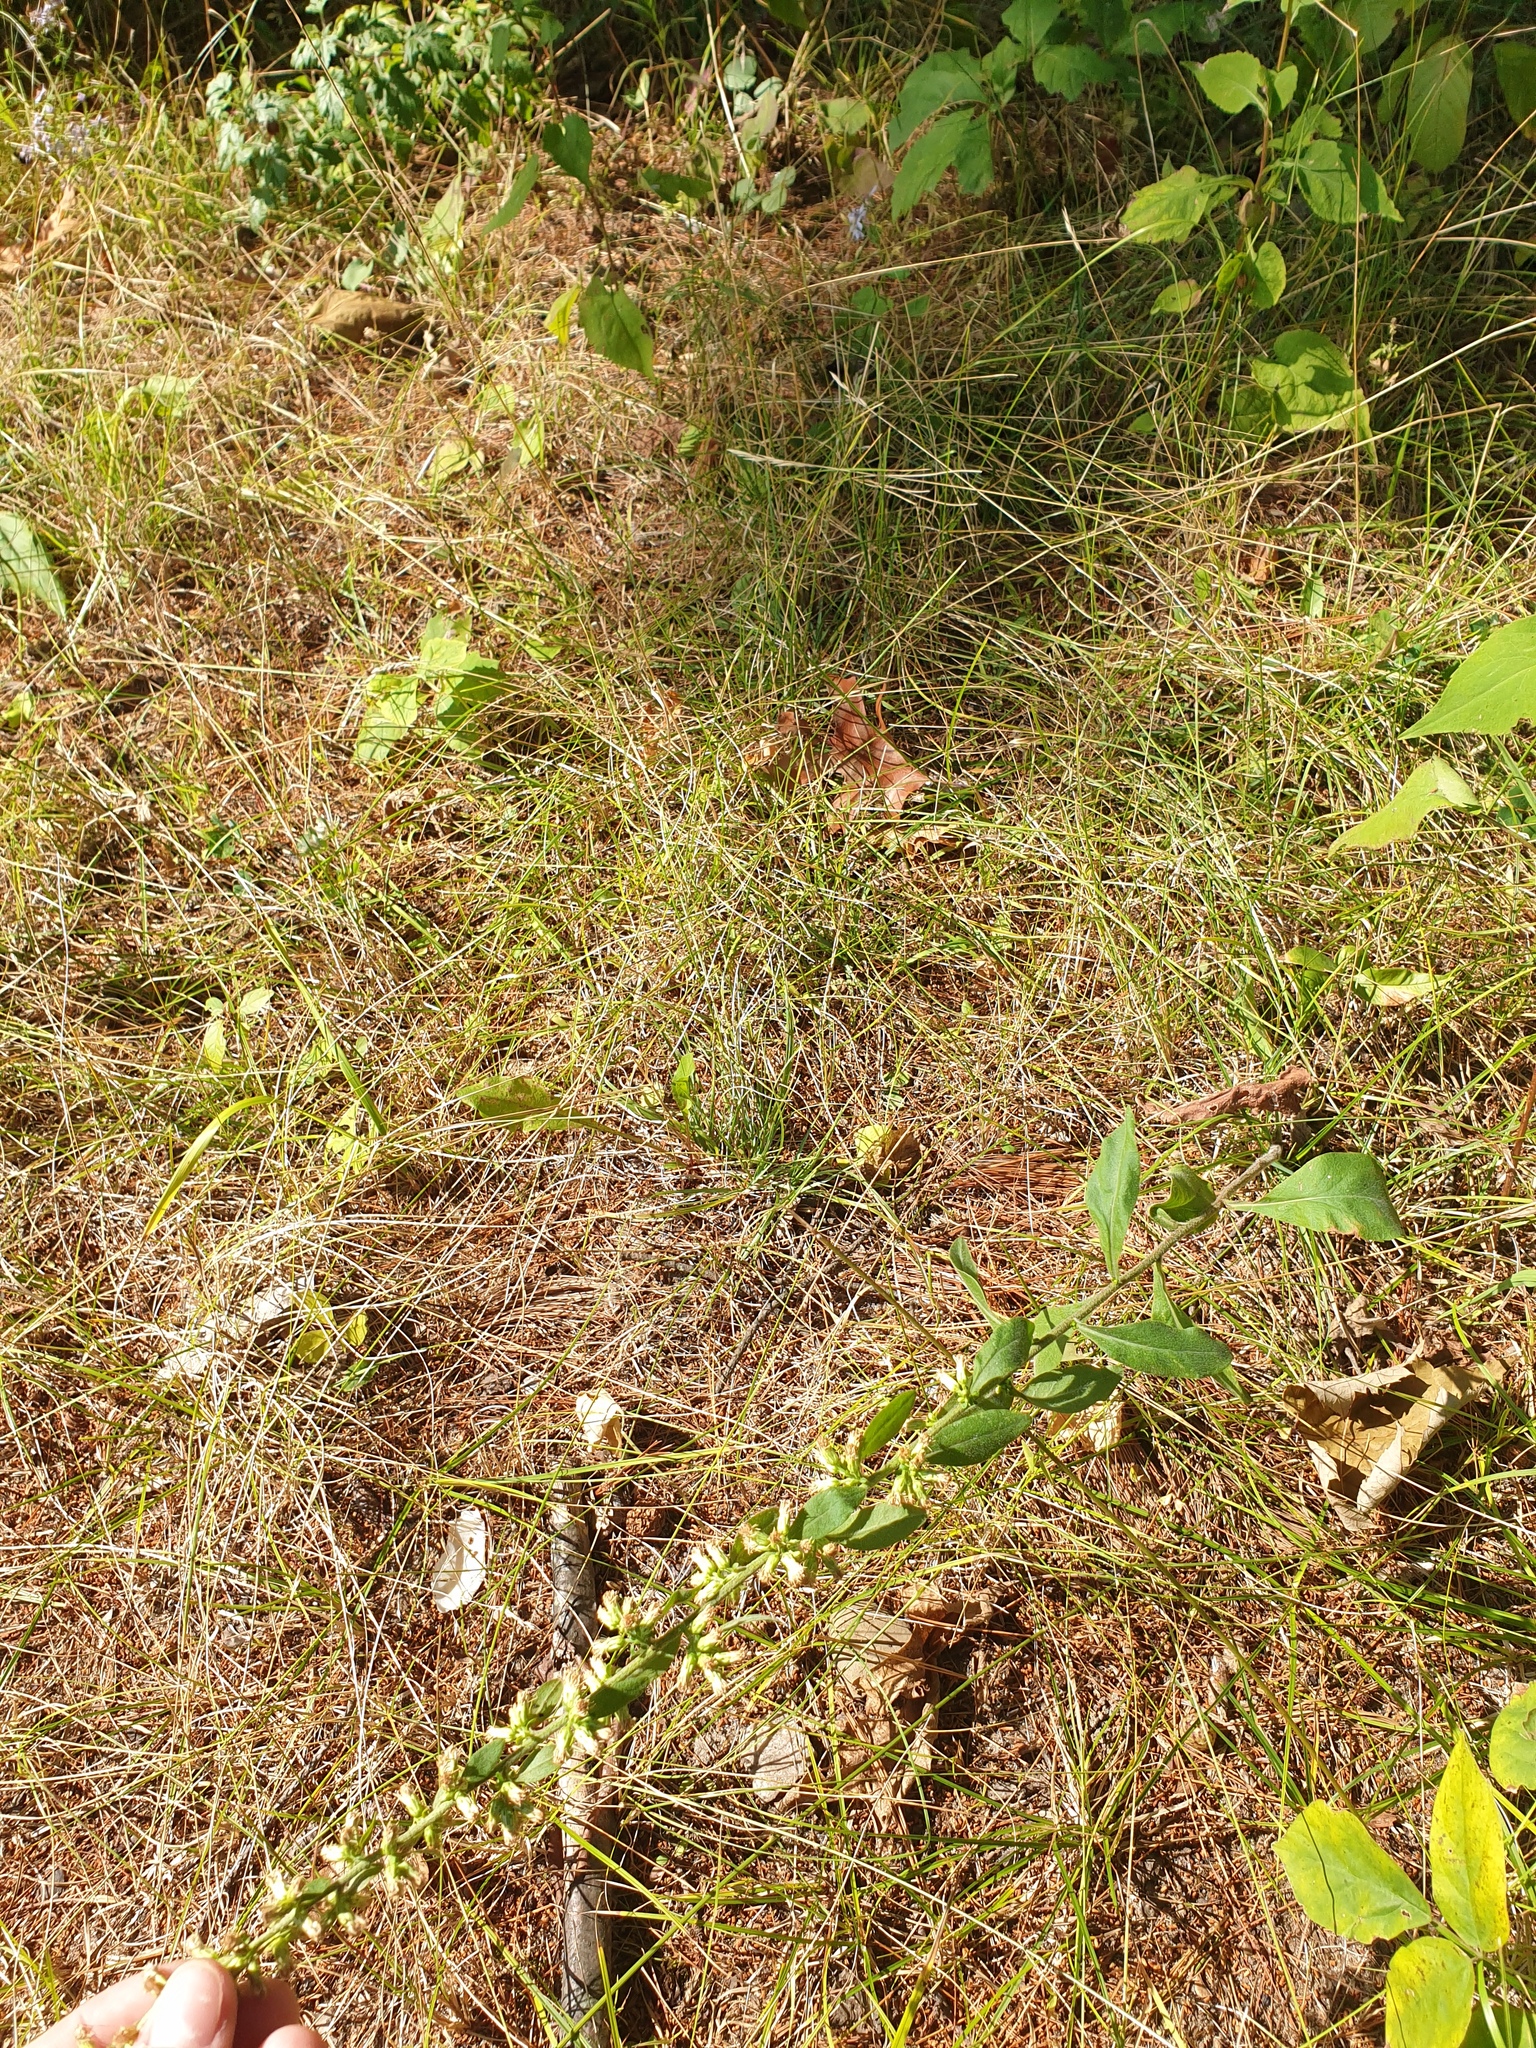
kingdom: Plantae
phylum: Tracheophyta
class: Magnoliopsida
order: Asterales
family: Asteraceae
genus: Solidago
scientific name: Solidago bicolor
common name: Silverrod
